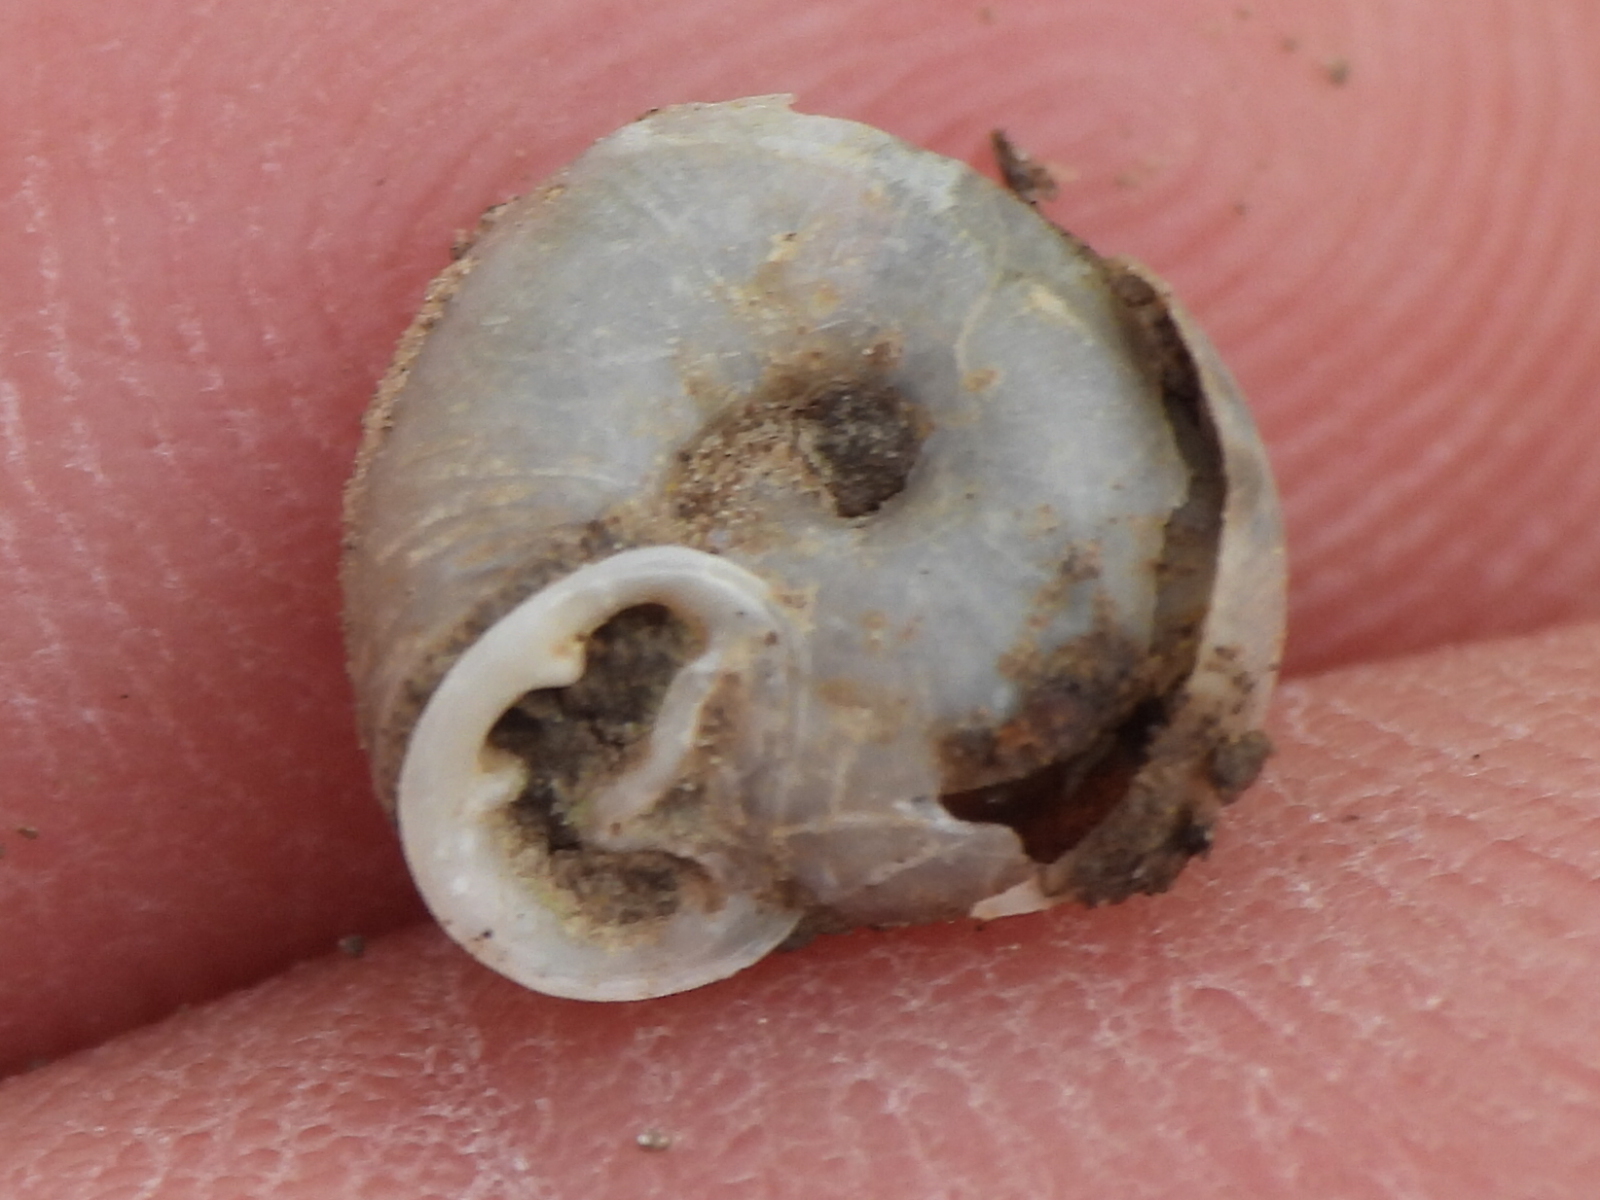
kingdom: Animalia
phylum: Mollusca
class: Gastropoda
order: Stylommatophora
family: Polygyridae
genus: Linisa
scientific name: Linisa texasiana
